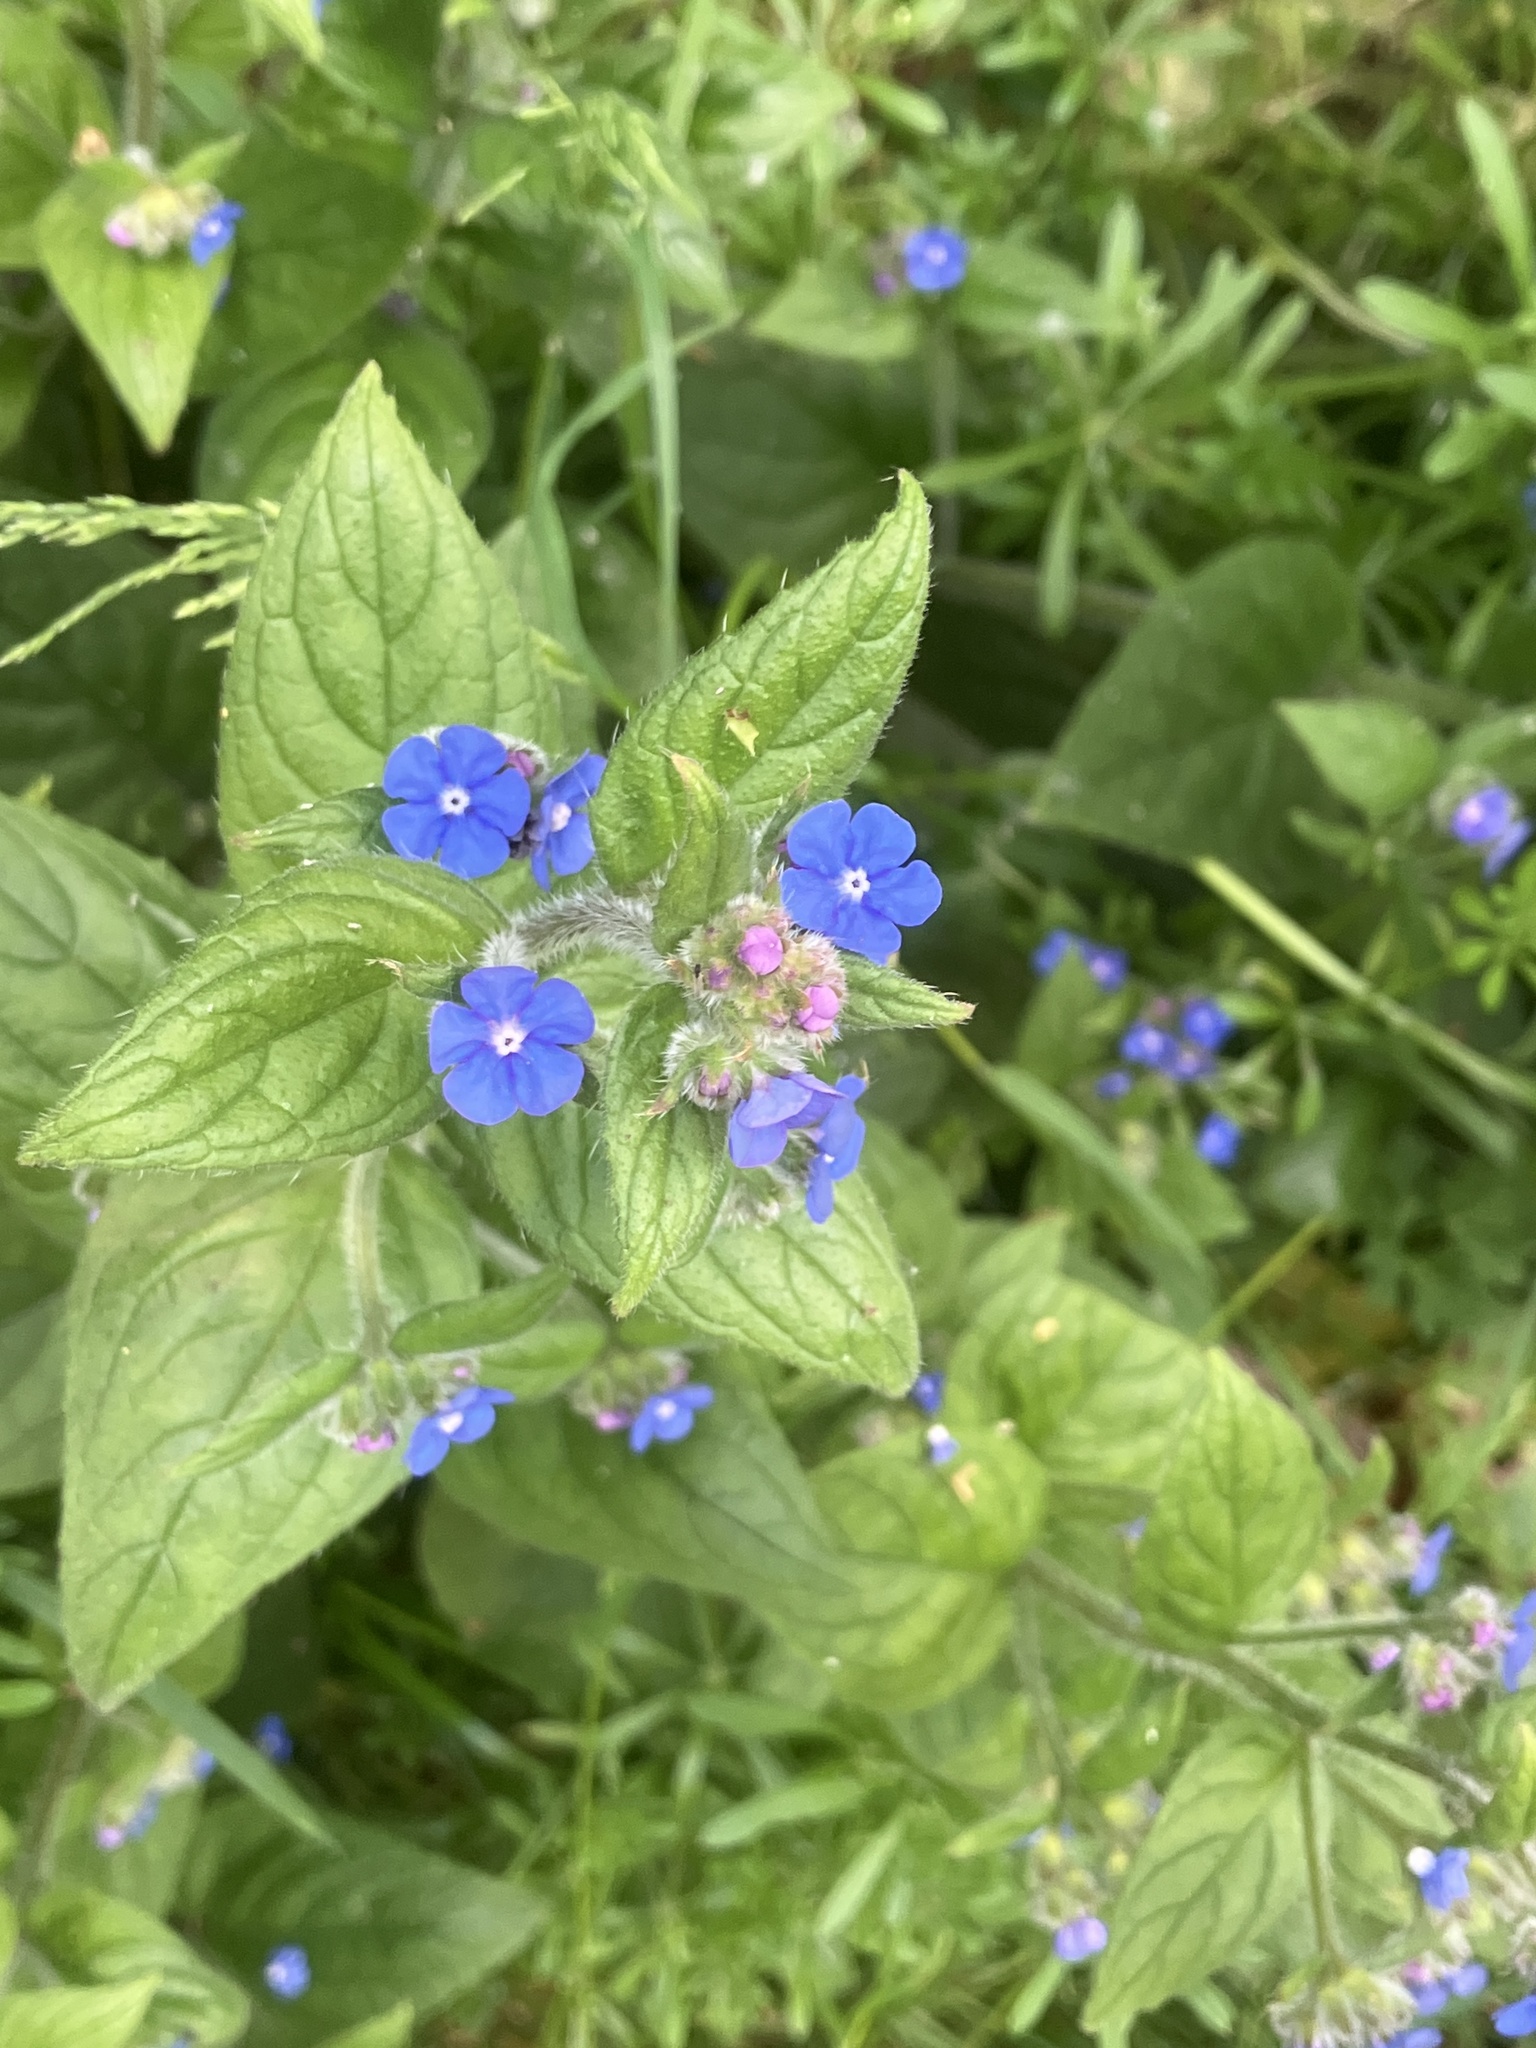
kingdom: Plantae
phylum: Tracheophyta
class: Magnoliopsida
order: Boraginales
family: Boraginaceae
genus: Pentaglottis
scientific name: Pentaglottis sempervirens
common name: Green alkanet
